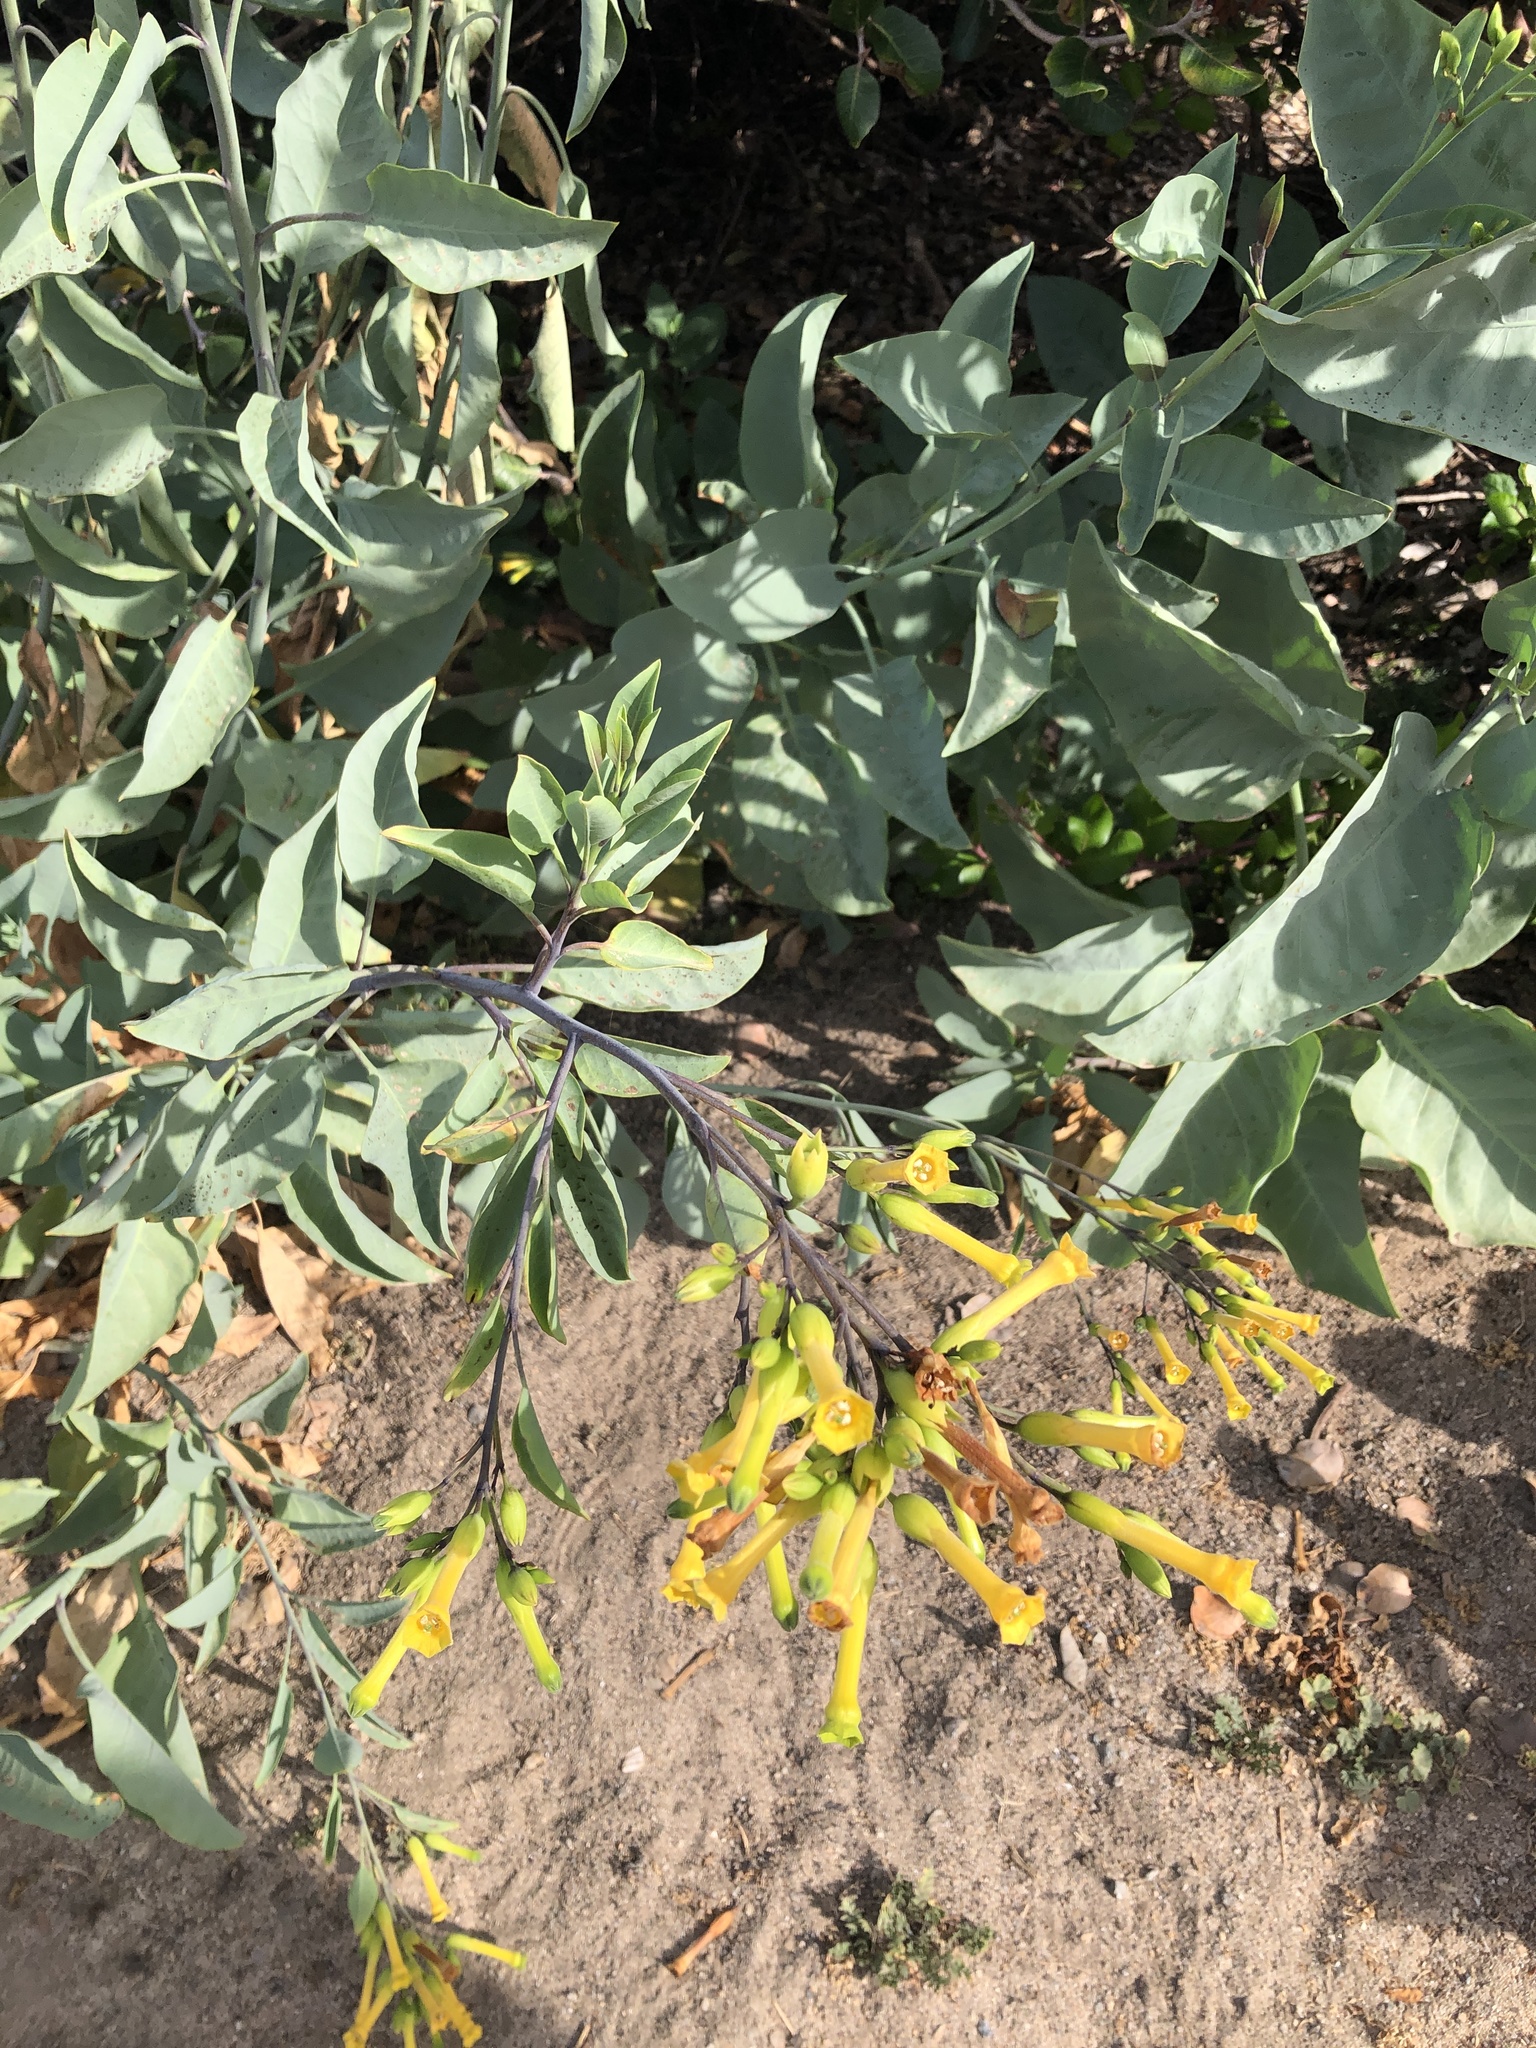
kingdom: Plantae
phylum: Tracheophyta
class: Magnoliopsida
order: Solanales
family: Solanaceae
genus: Nicotiana
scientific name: Nicotiana glauca
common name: Tree tobacco
